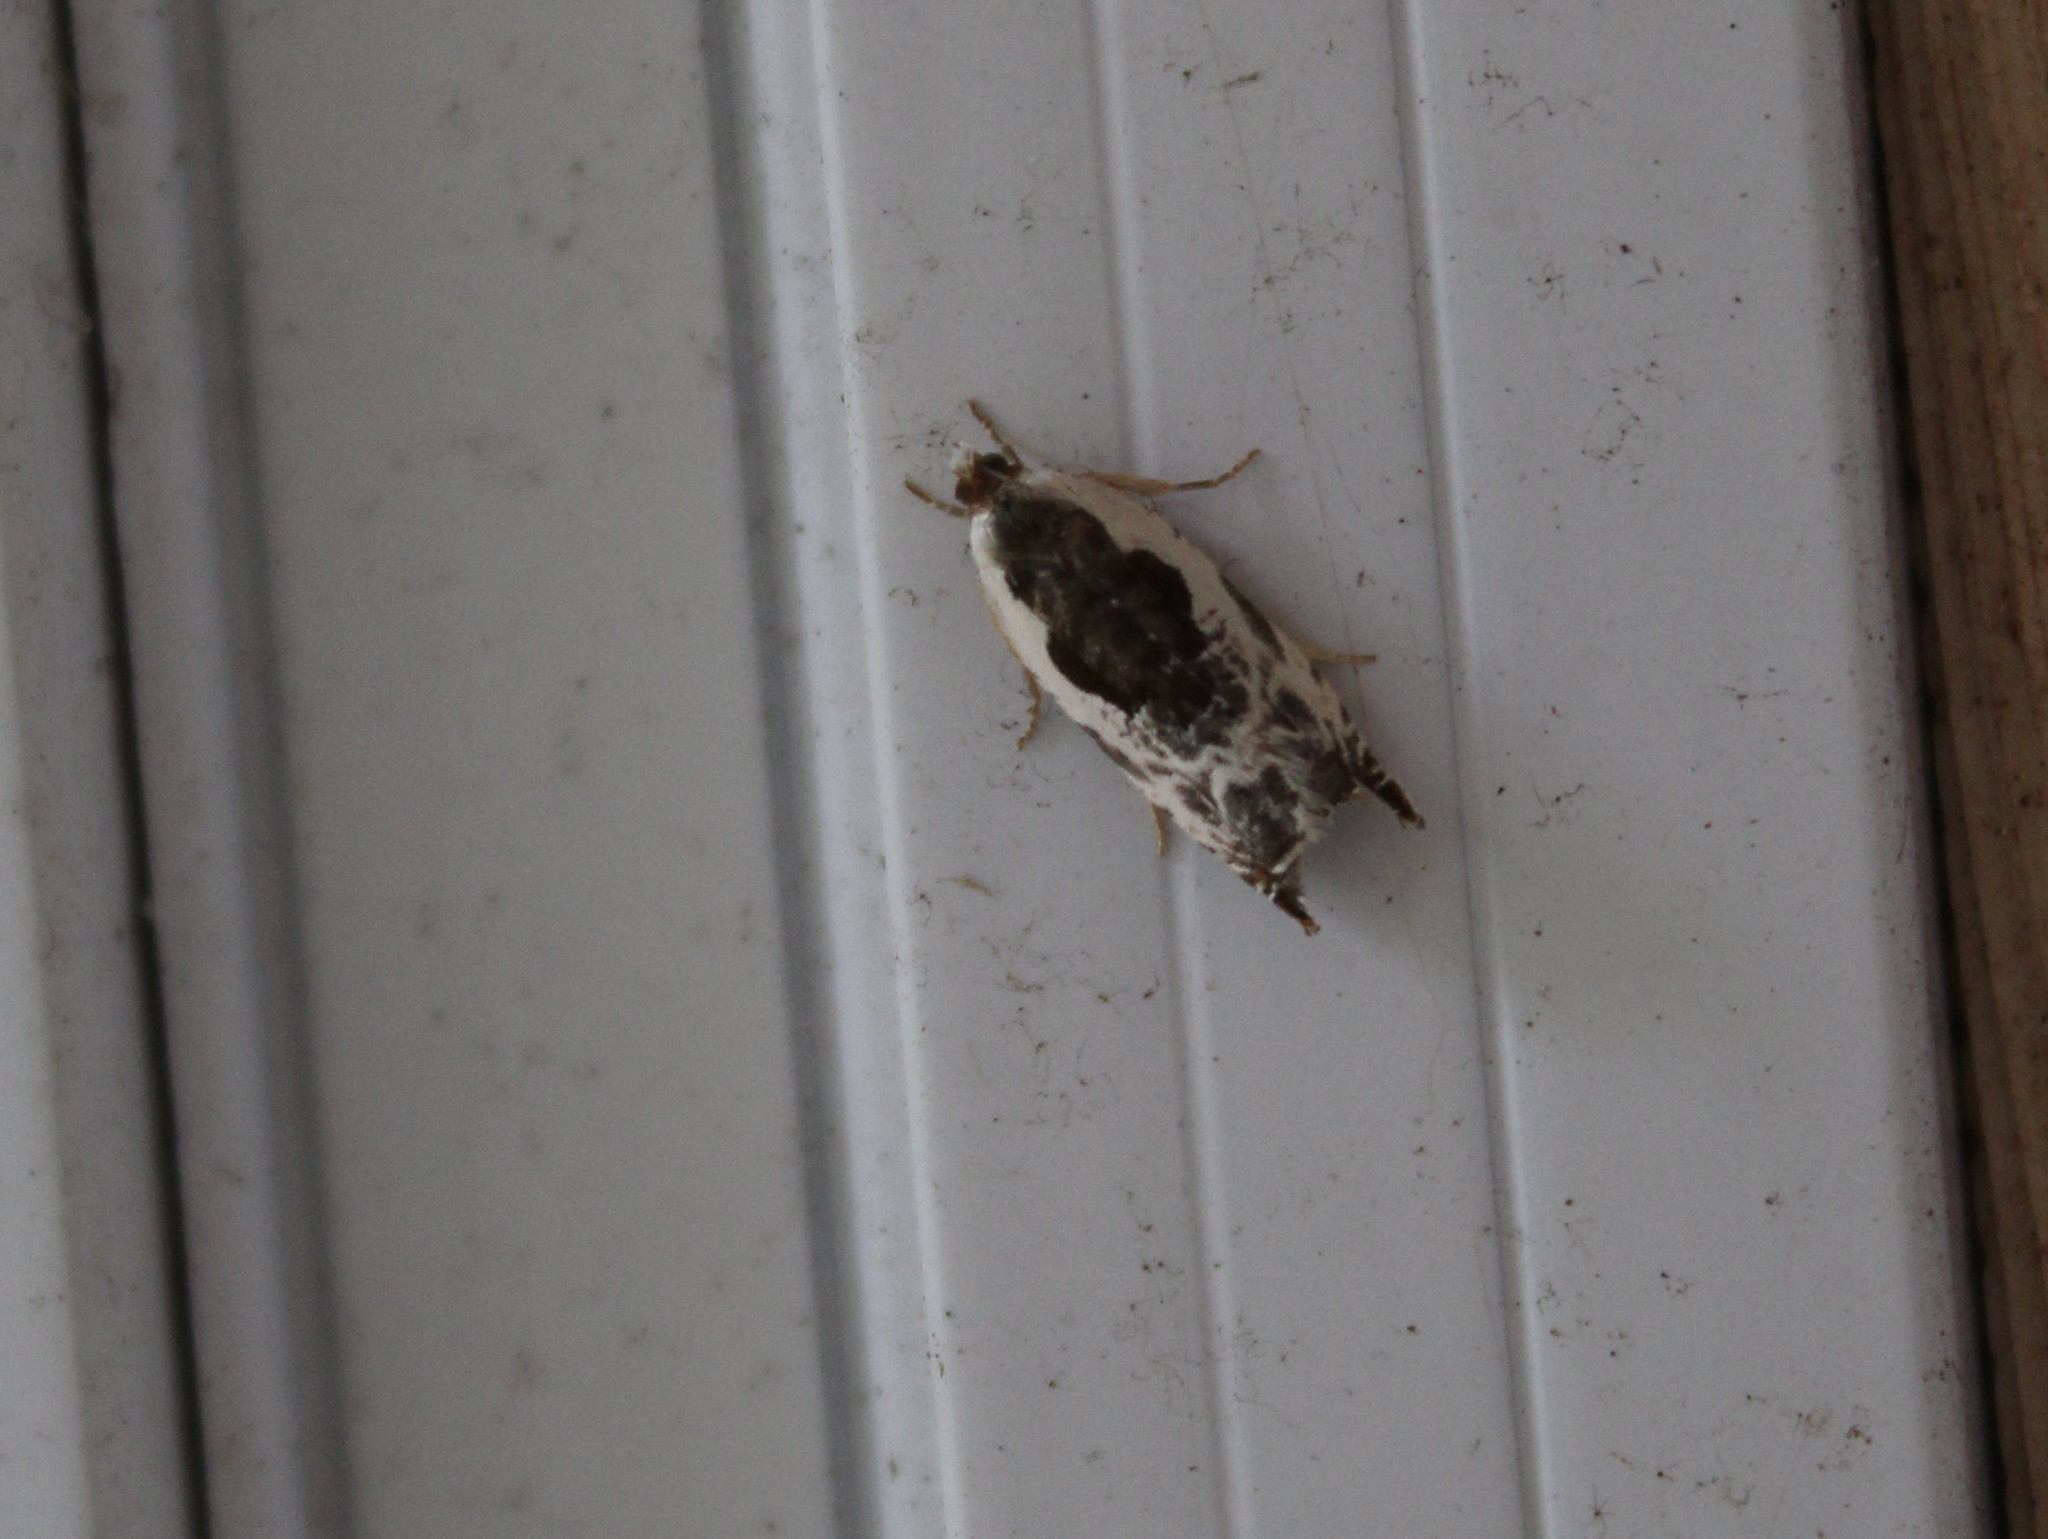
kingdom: Animalia
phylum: Arthropoda
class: Insecta
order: Lepidoptera
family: Tortricidae
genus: Ancylis
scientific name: Ancylis nubeculana
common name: Little cloud ancylis moth
